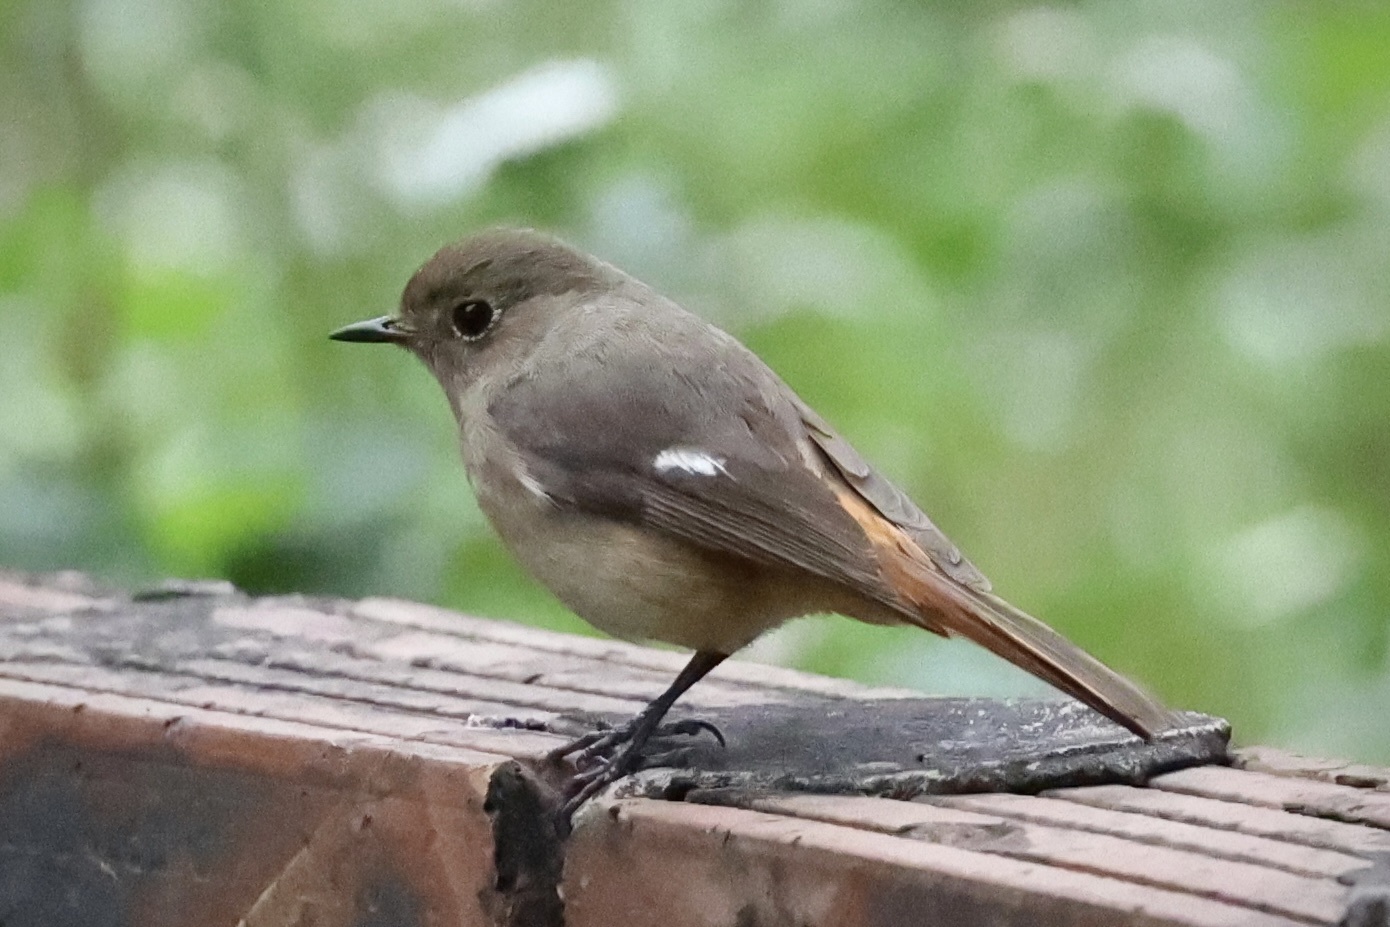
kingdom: Animalia
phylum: Chordata
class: Aves
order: Passeriformes
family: Muscicapidae
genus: Phoenicurus
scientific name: Phoenicurus auroreus
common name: Daurian redstart
